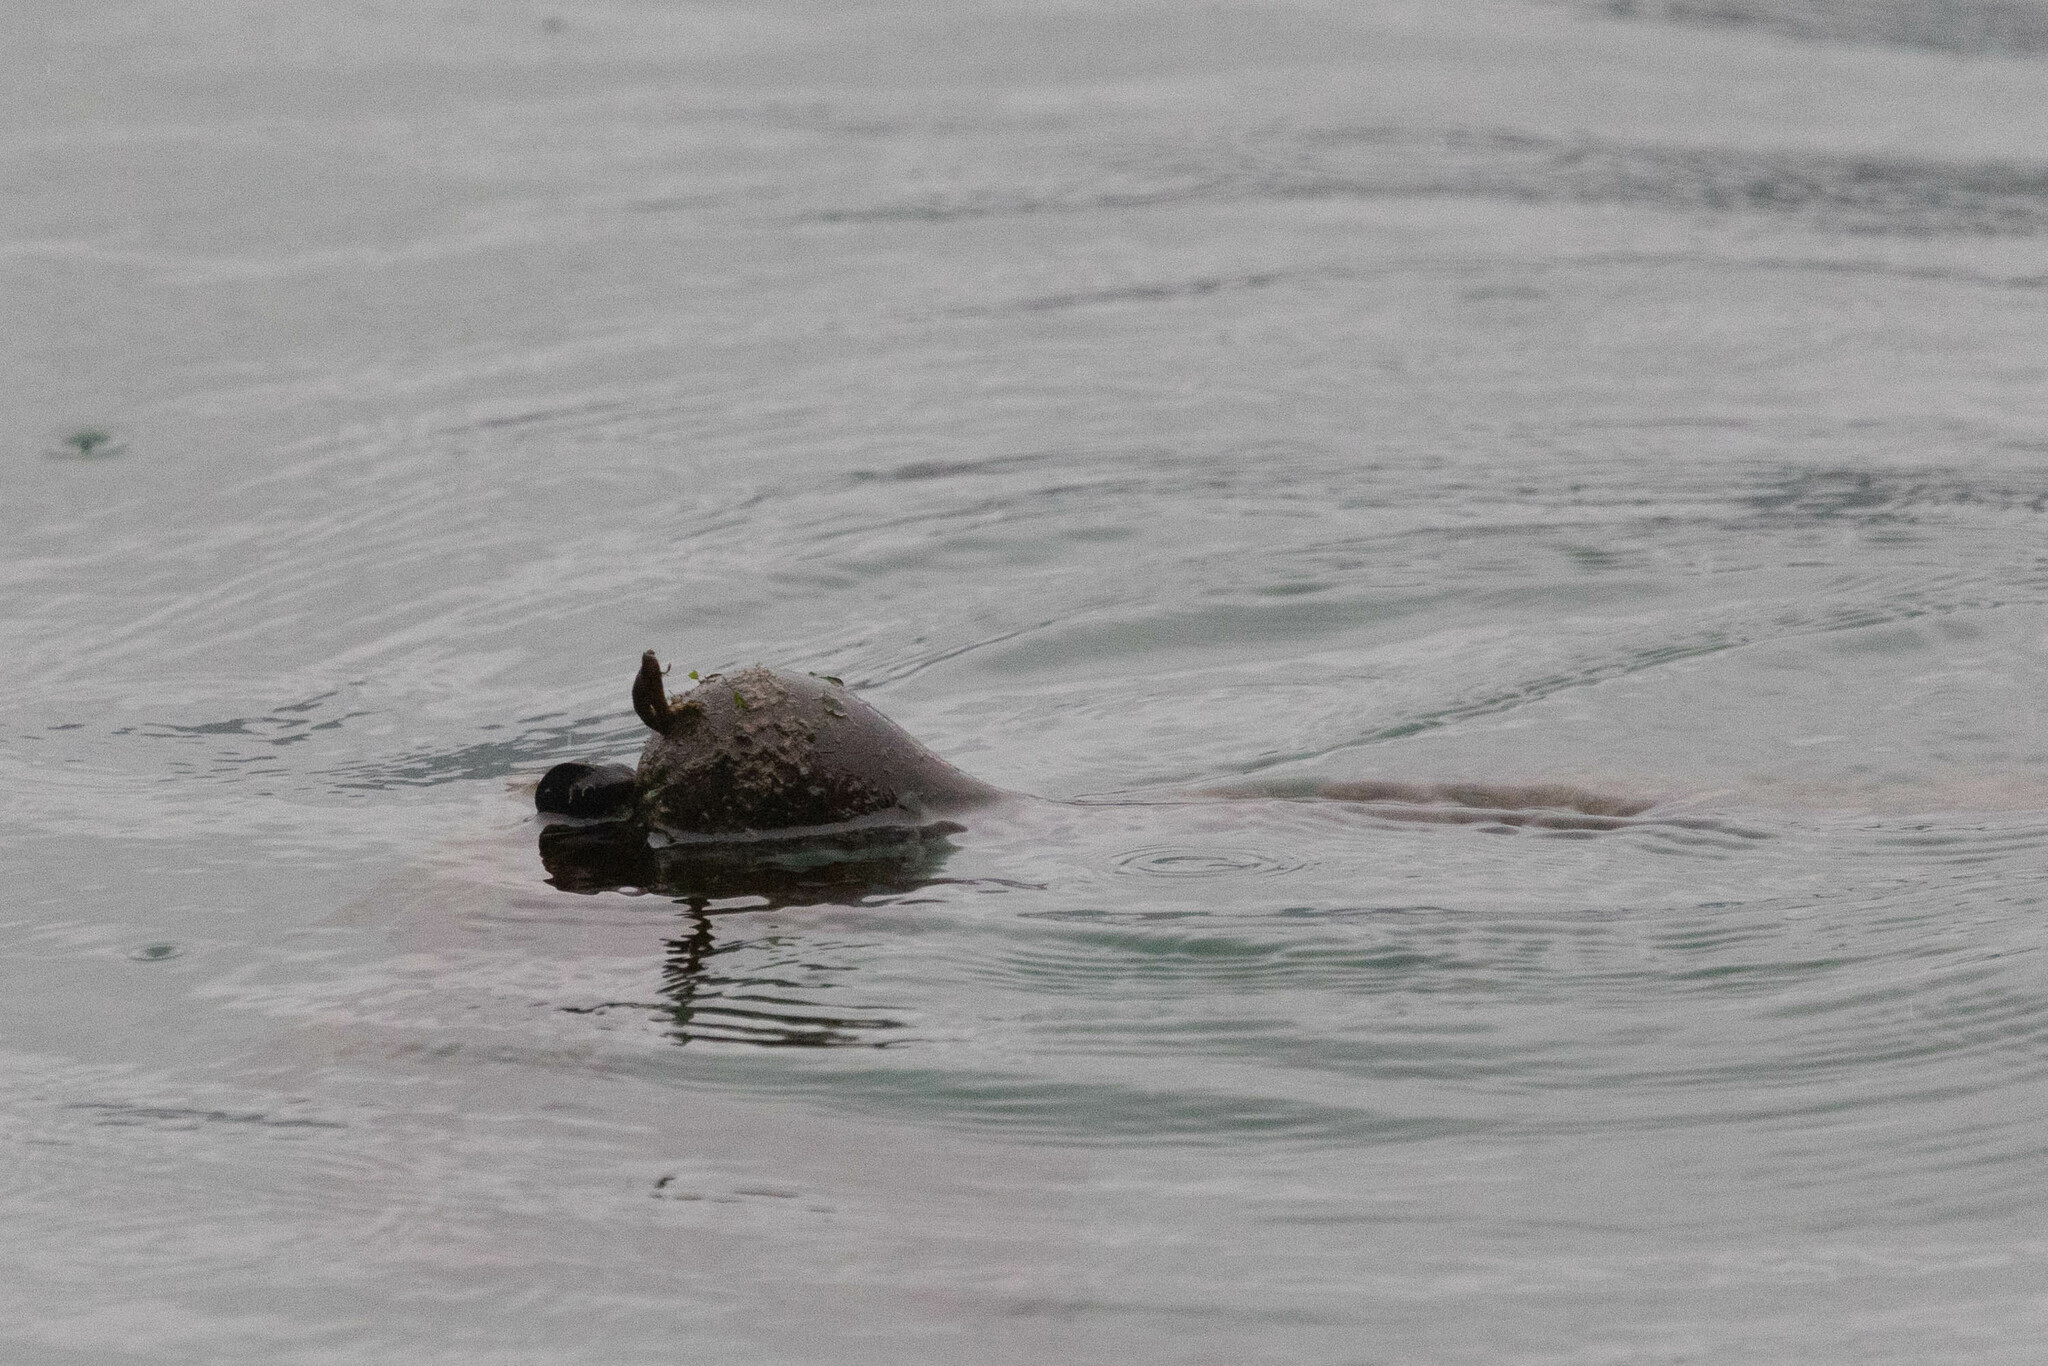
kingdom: Chromista
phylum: Ochrophyta
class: Phaeophyceae
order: Laminariales
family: Laminariaceae
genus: Nereocystis
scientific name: Nereocystis luetkeana
